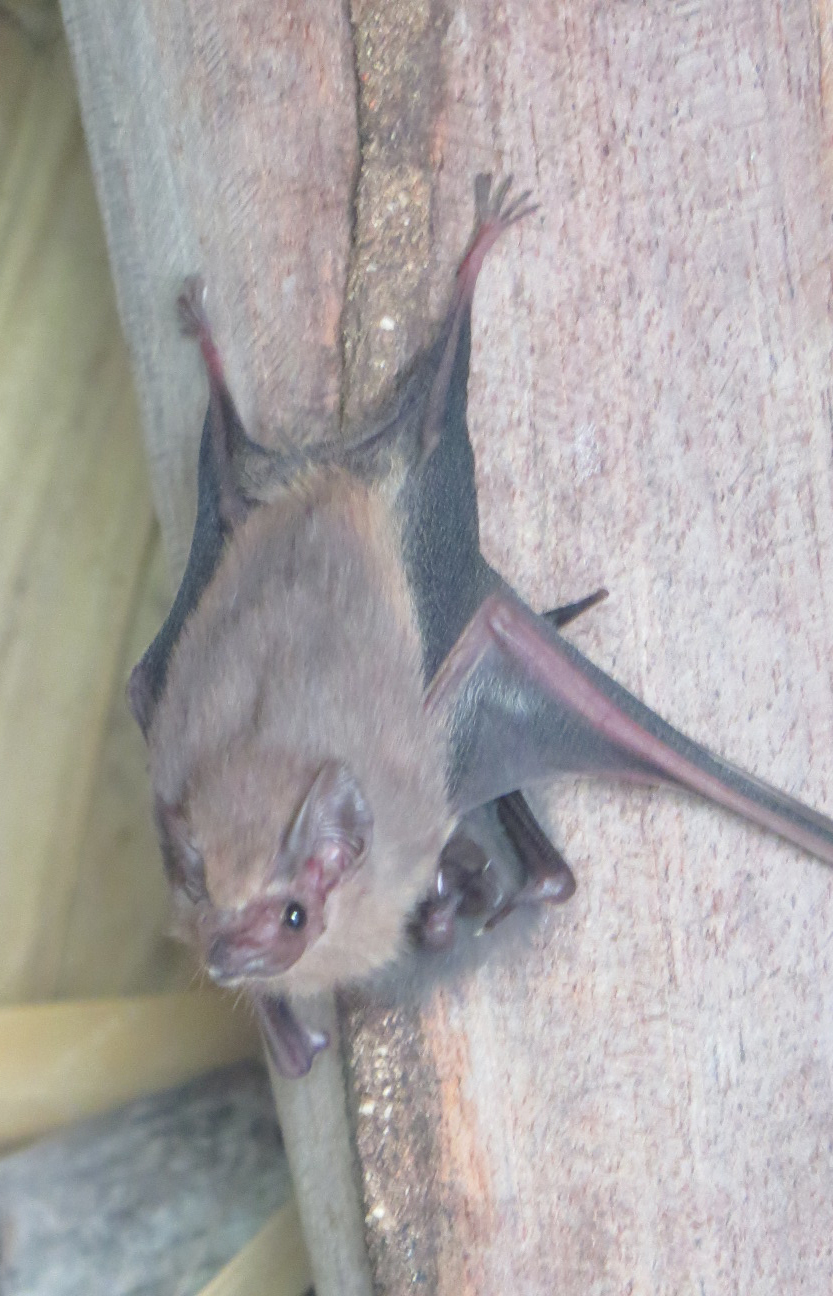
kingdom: Animalia
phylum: Chordata
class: Mammalia
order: Chiroptera
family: Emballonuridae
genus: Balantiopteryx
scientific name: Balantiopteryx plicata
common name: Gray sac-winged bat
